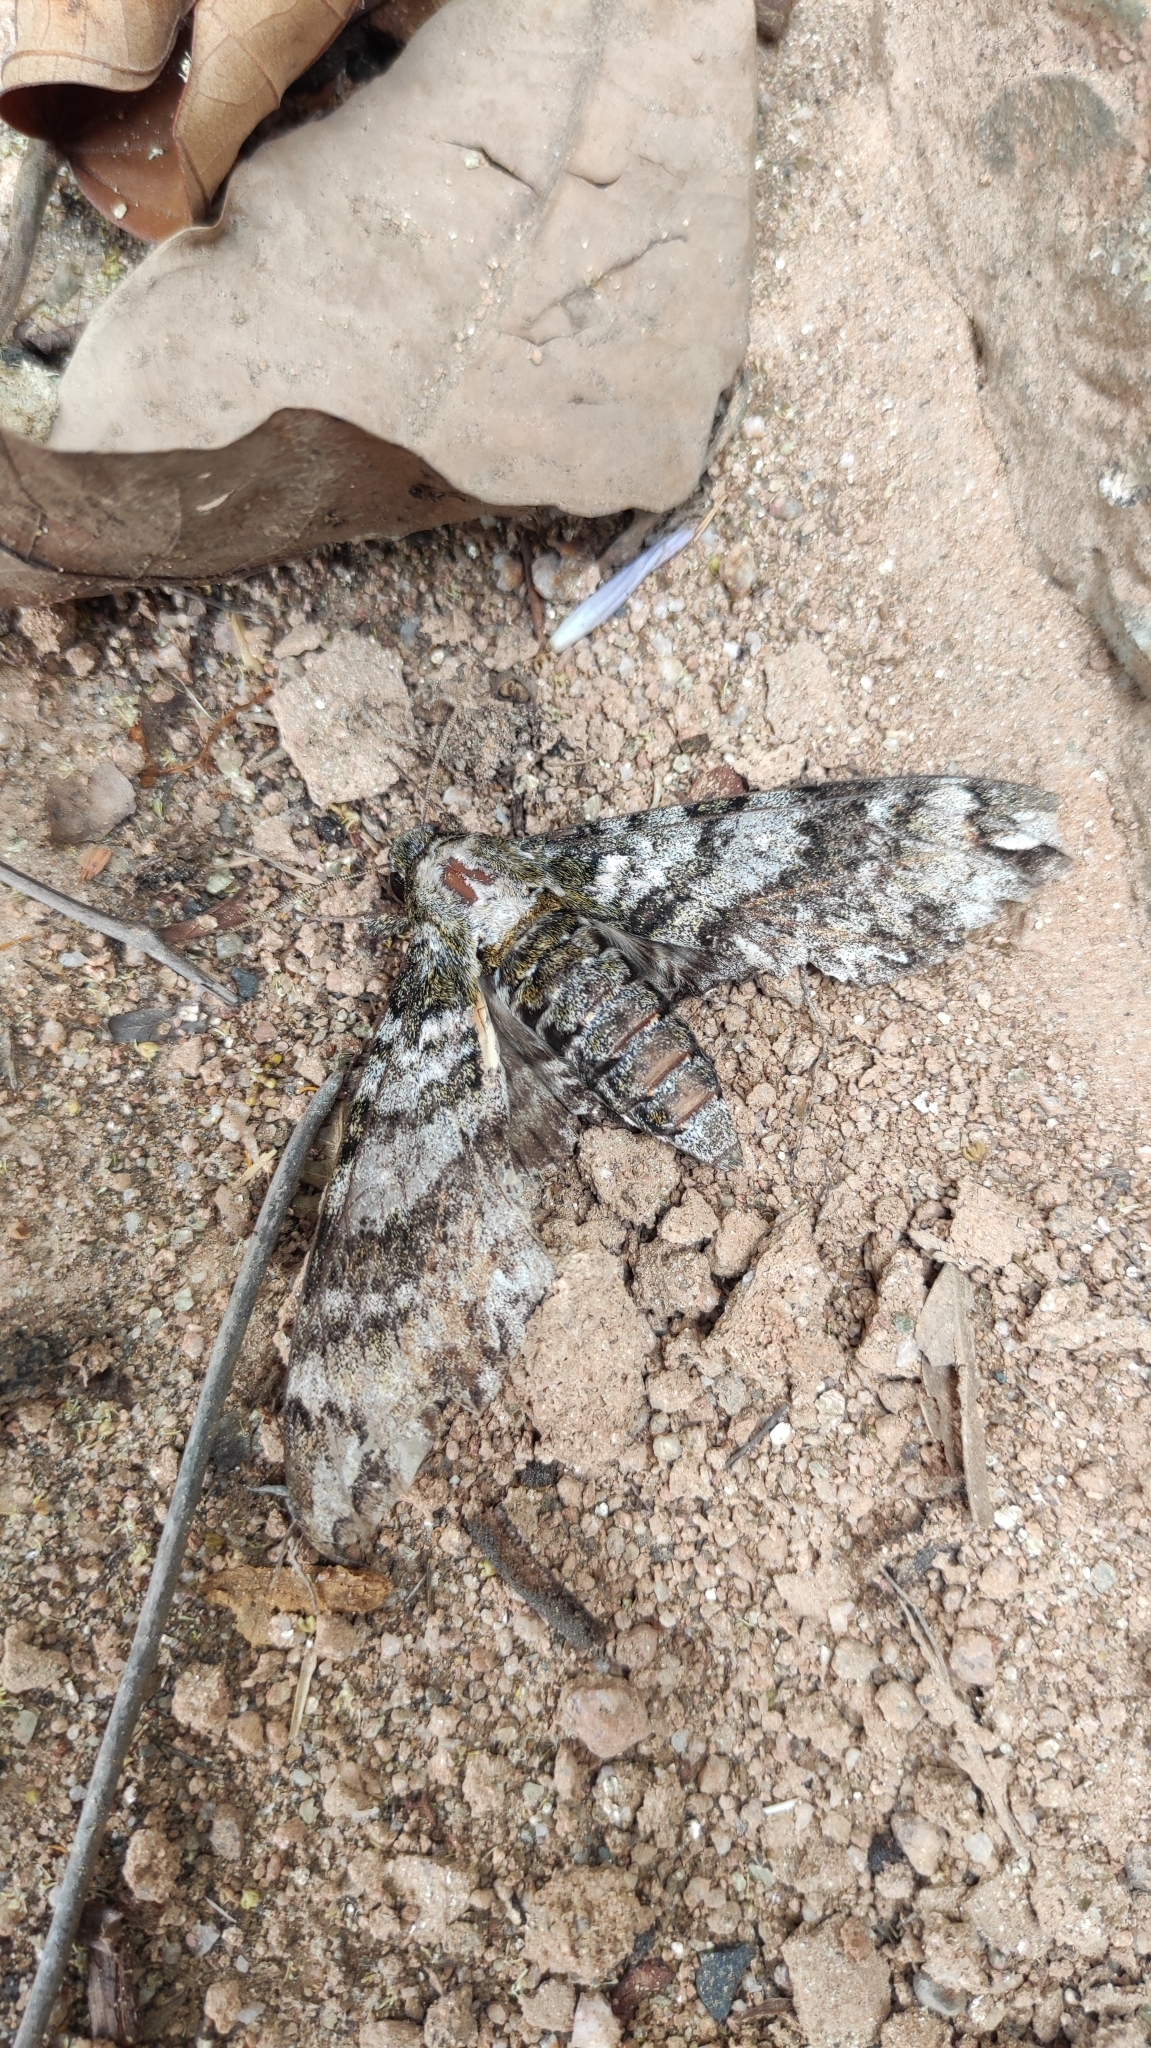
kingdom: Animalia
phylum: Arthropoda
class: Insecta
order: Lepidoptera
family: Sphingidae
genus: Manduca
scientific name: Manduca schausi
